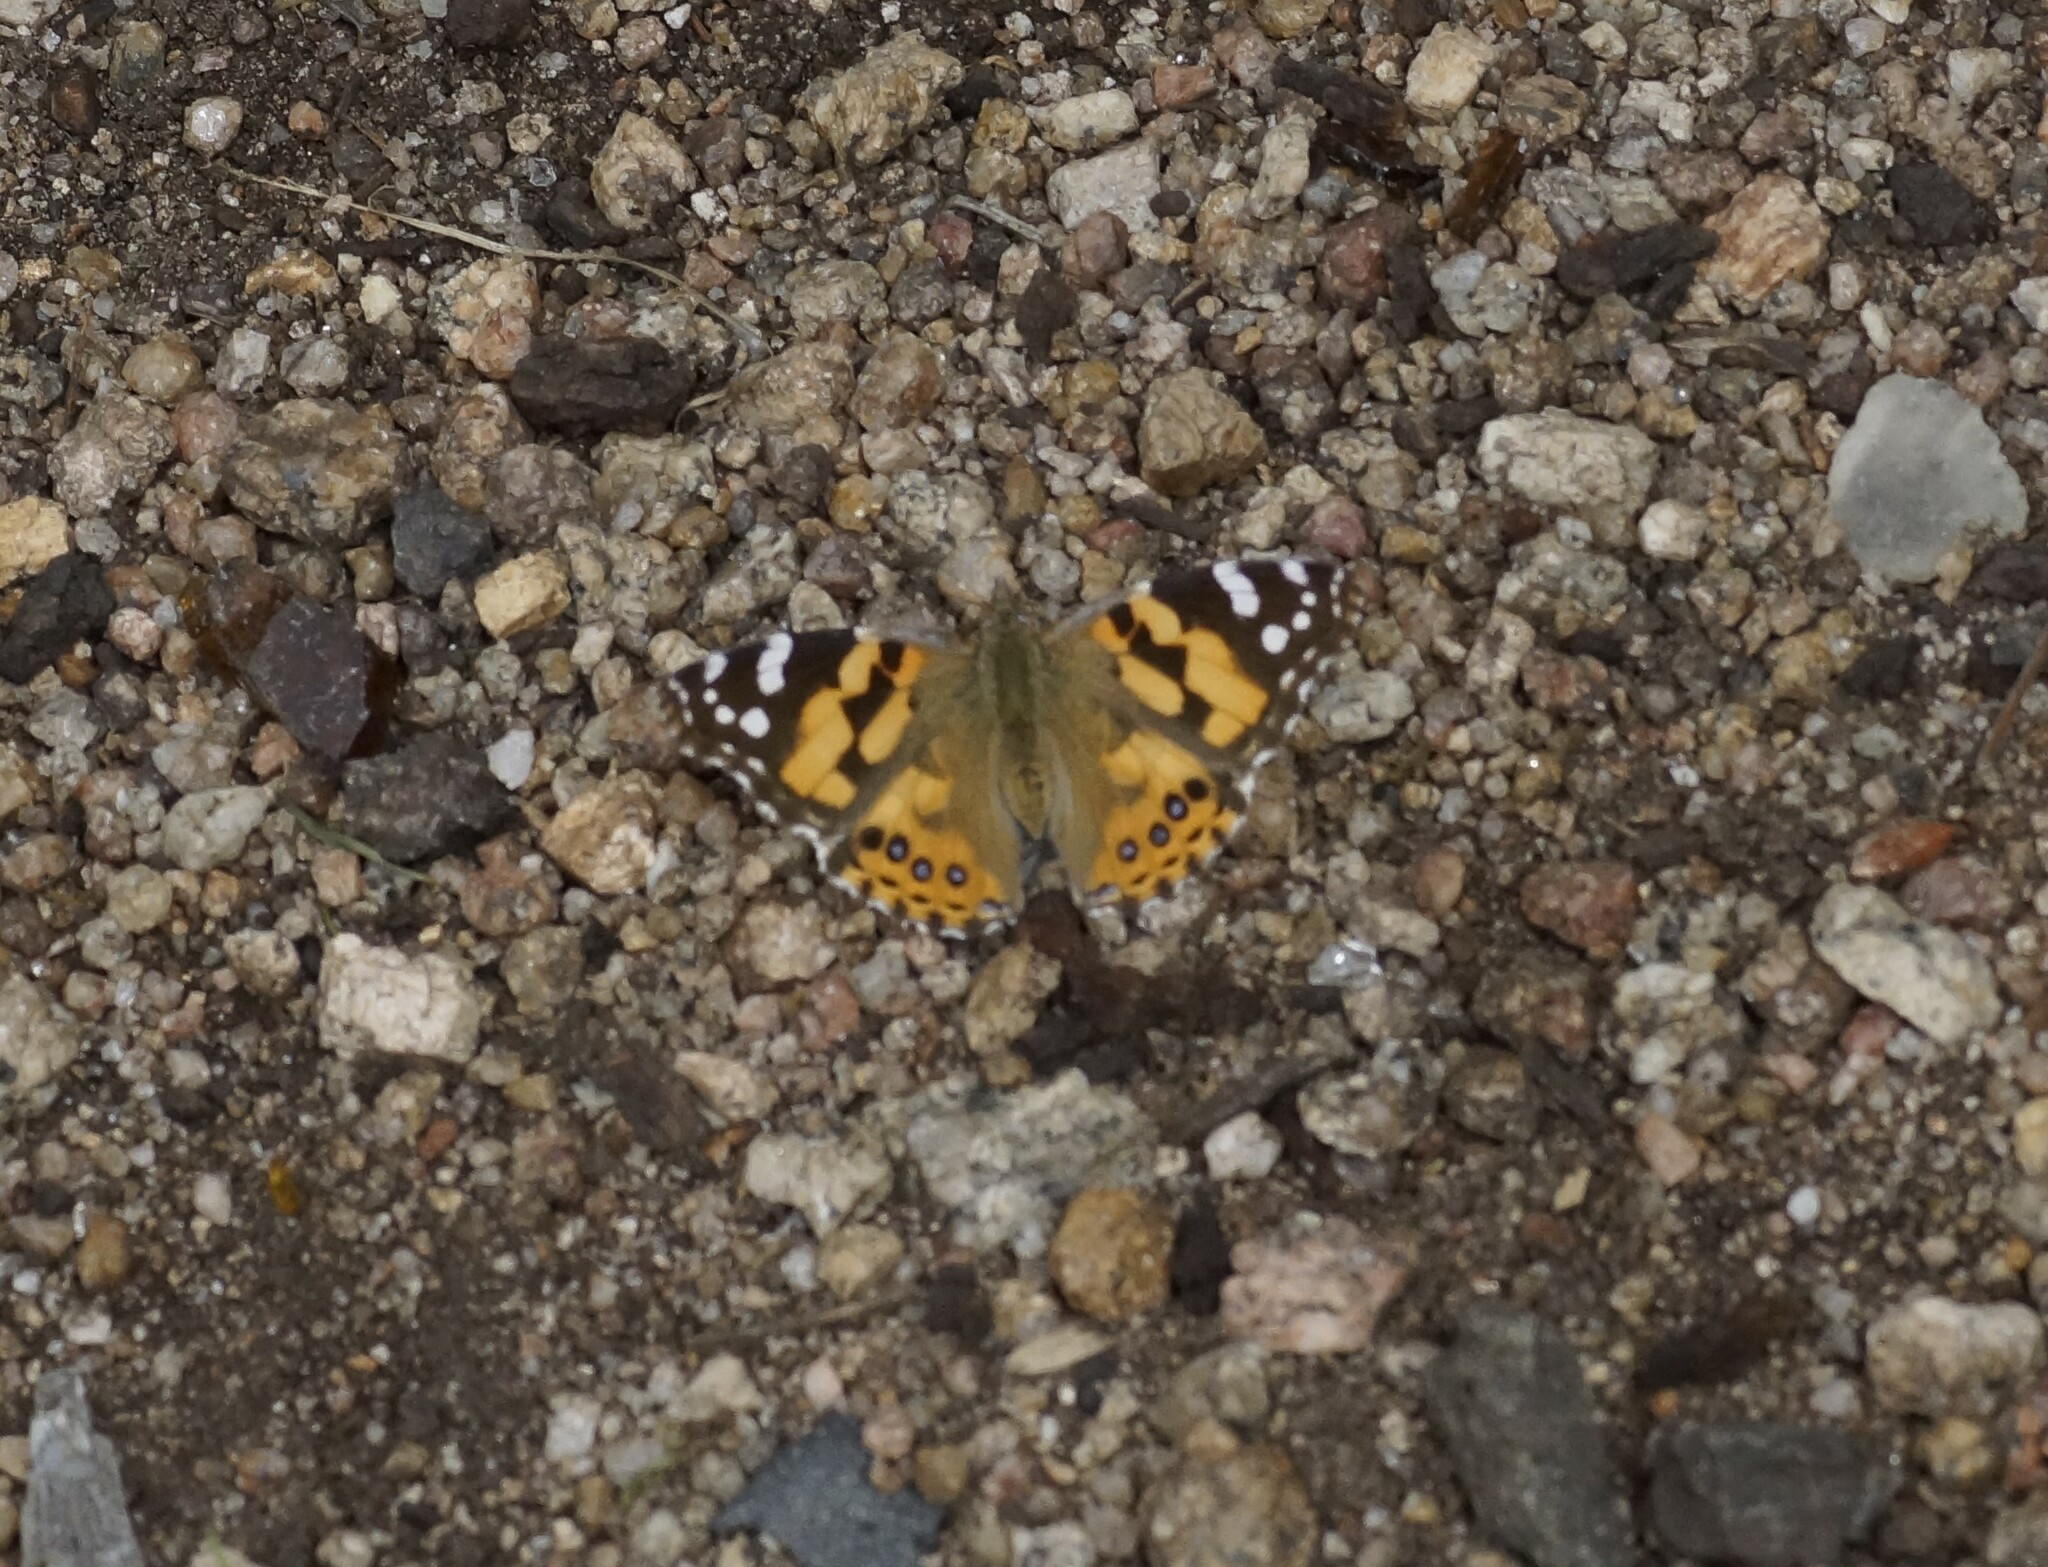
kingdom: Animalia
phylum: Arthropoda
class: Insecta
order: Lepidoptera
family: Nymphalidae
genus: Vanessa
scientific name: Vanessa kershawi
